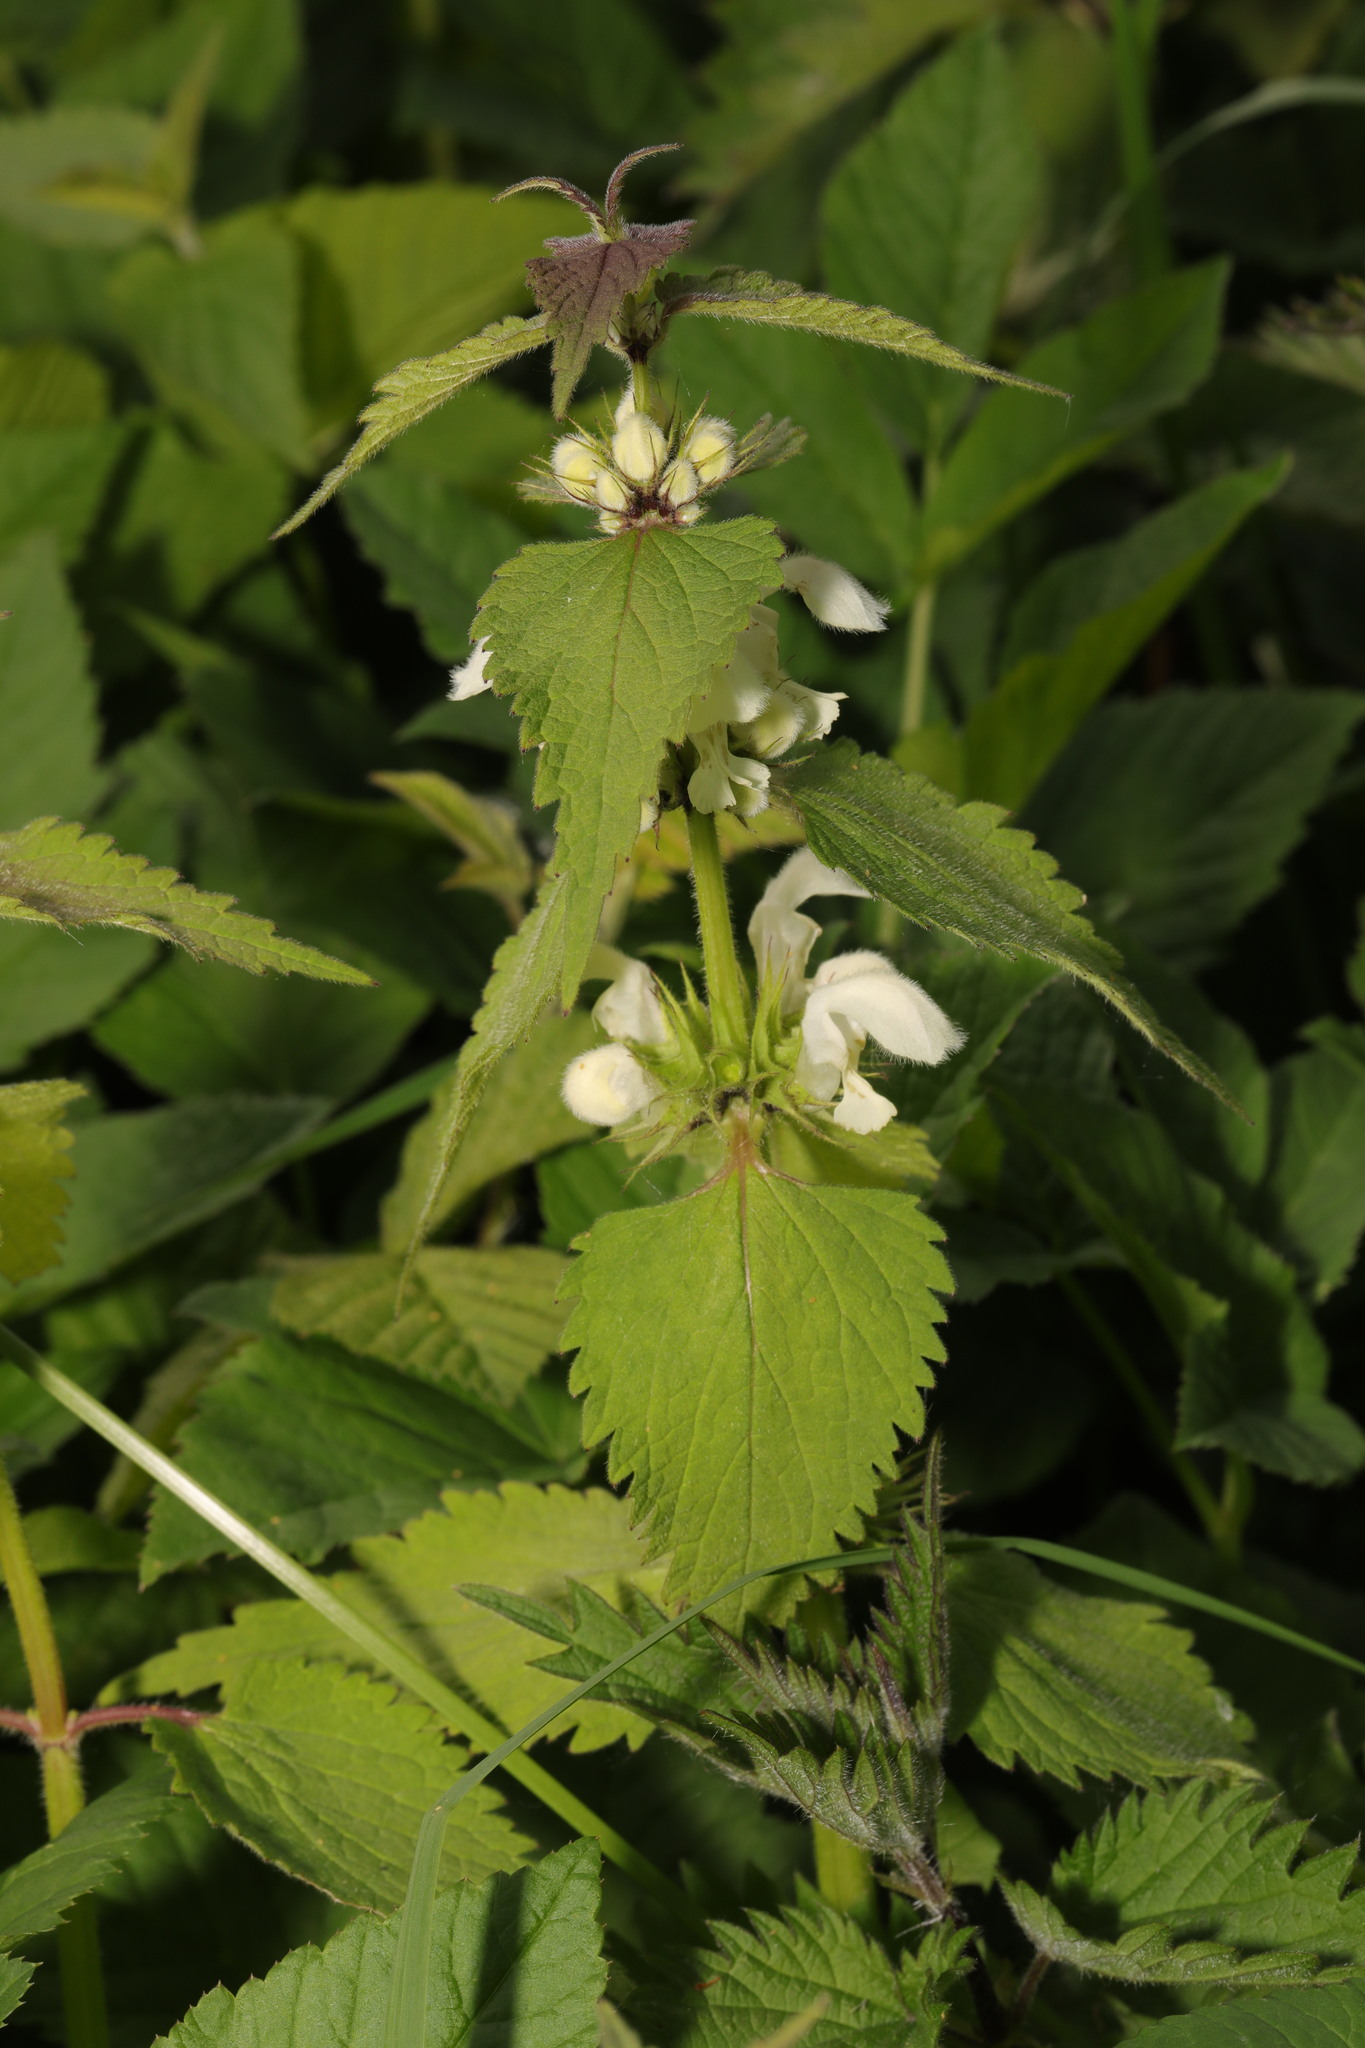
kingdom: Plantae
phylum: Tracheophyta
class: Magnoliopsida
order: Lamiales
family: Lamiaceae
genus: Lamium
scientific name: Lamium album
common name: White dead-nettle
